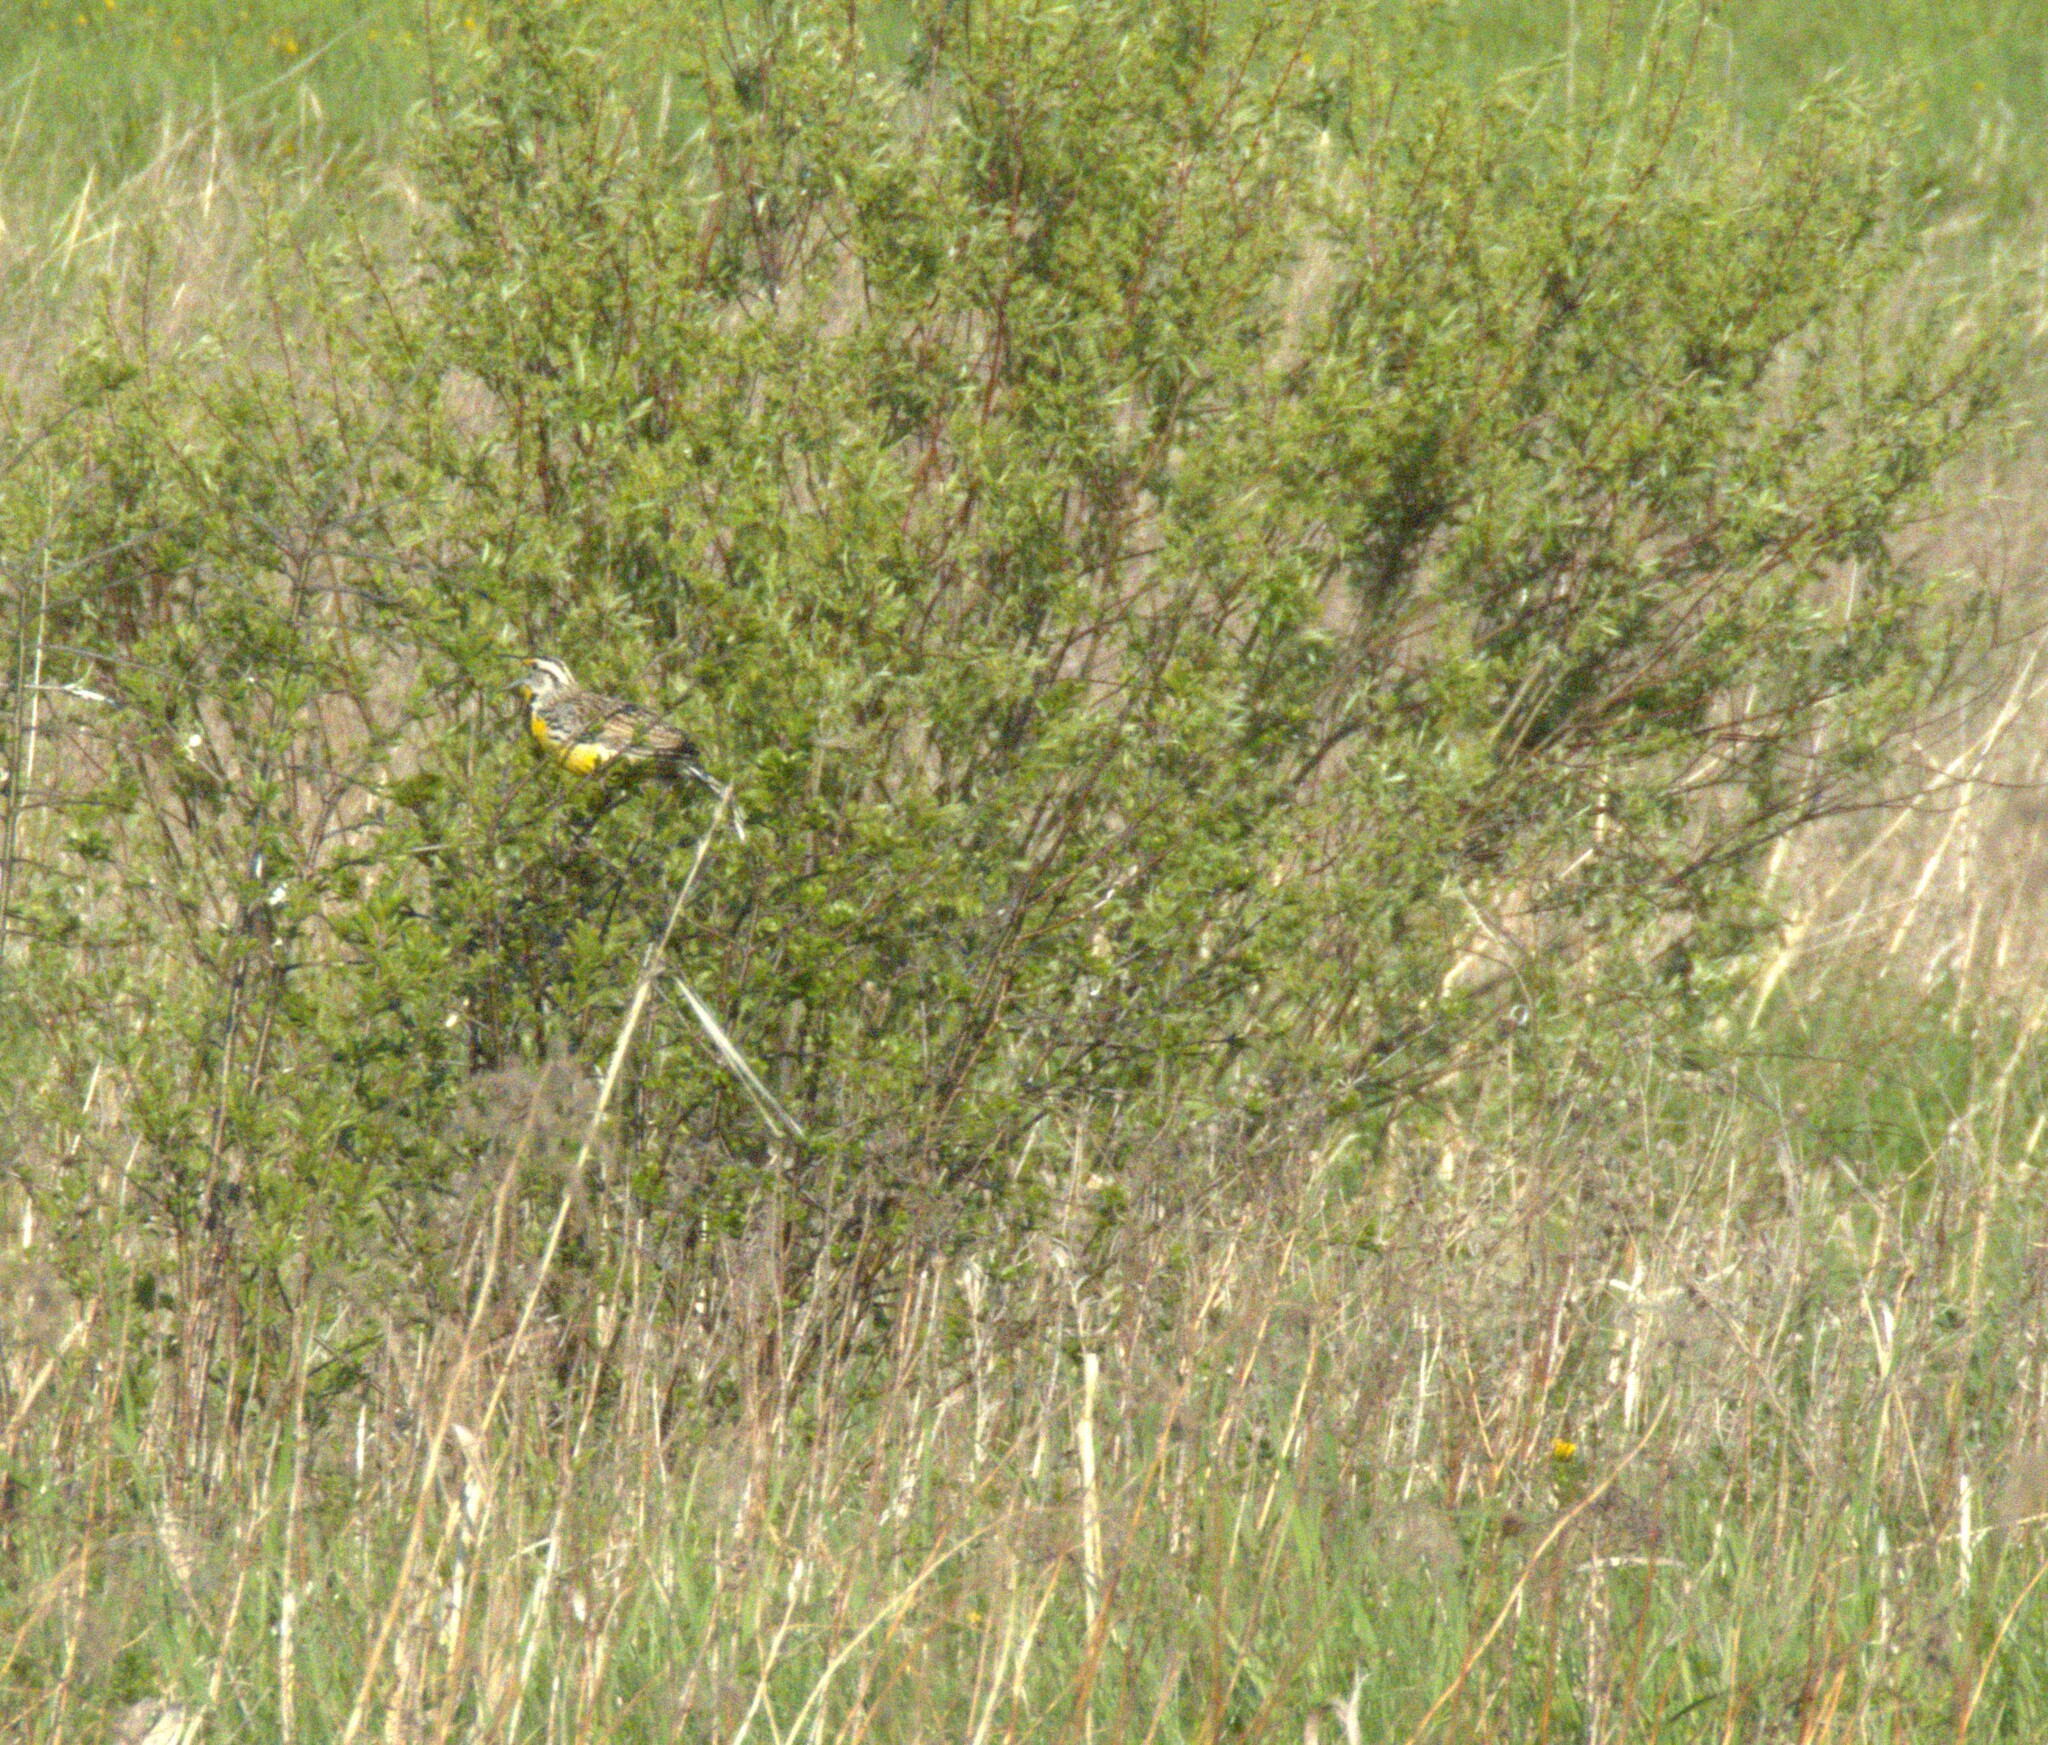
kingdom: Animalia
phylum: Chordata
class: Aves
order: Passeriformes
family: Icteridae
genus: Sturnella
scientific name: Sturnella magna
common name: Eastern meadowlark
